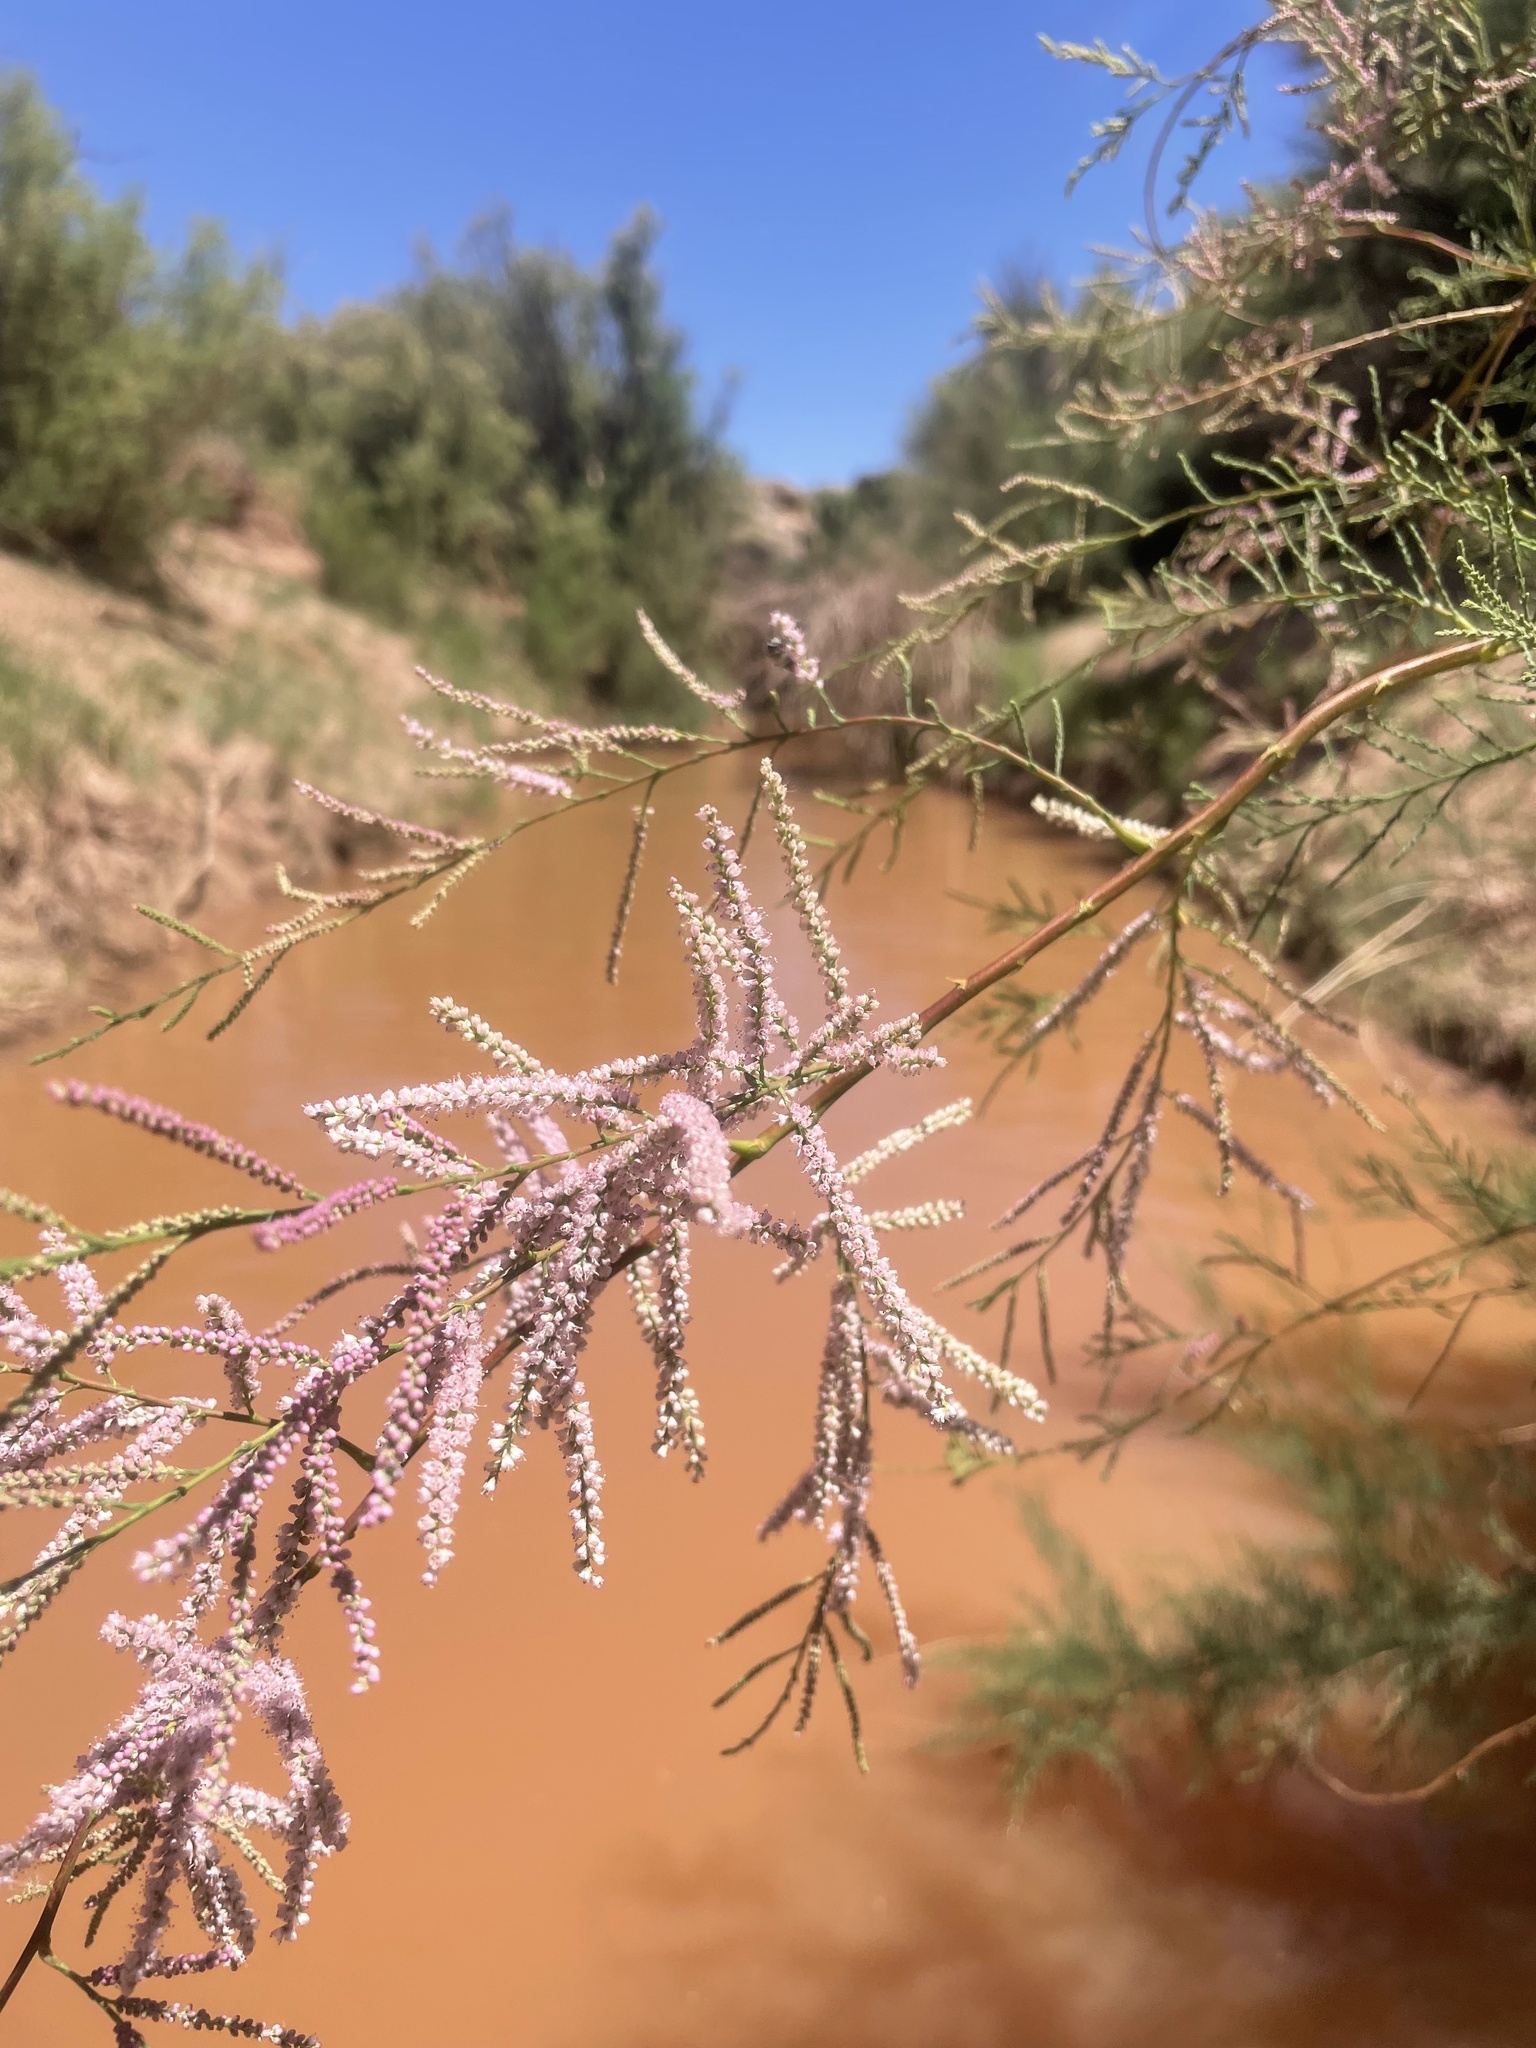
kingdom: Plantae
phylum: Tracheophyta
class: Magnoliopsida
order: Caryophyllales
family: Tamaricaceae
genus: Tamarix
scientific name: Tamarix
